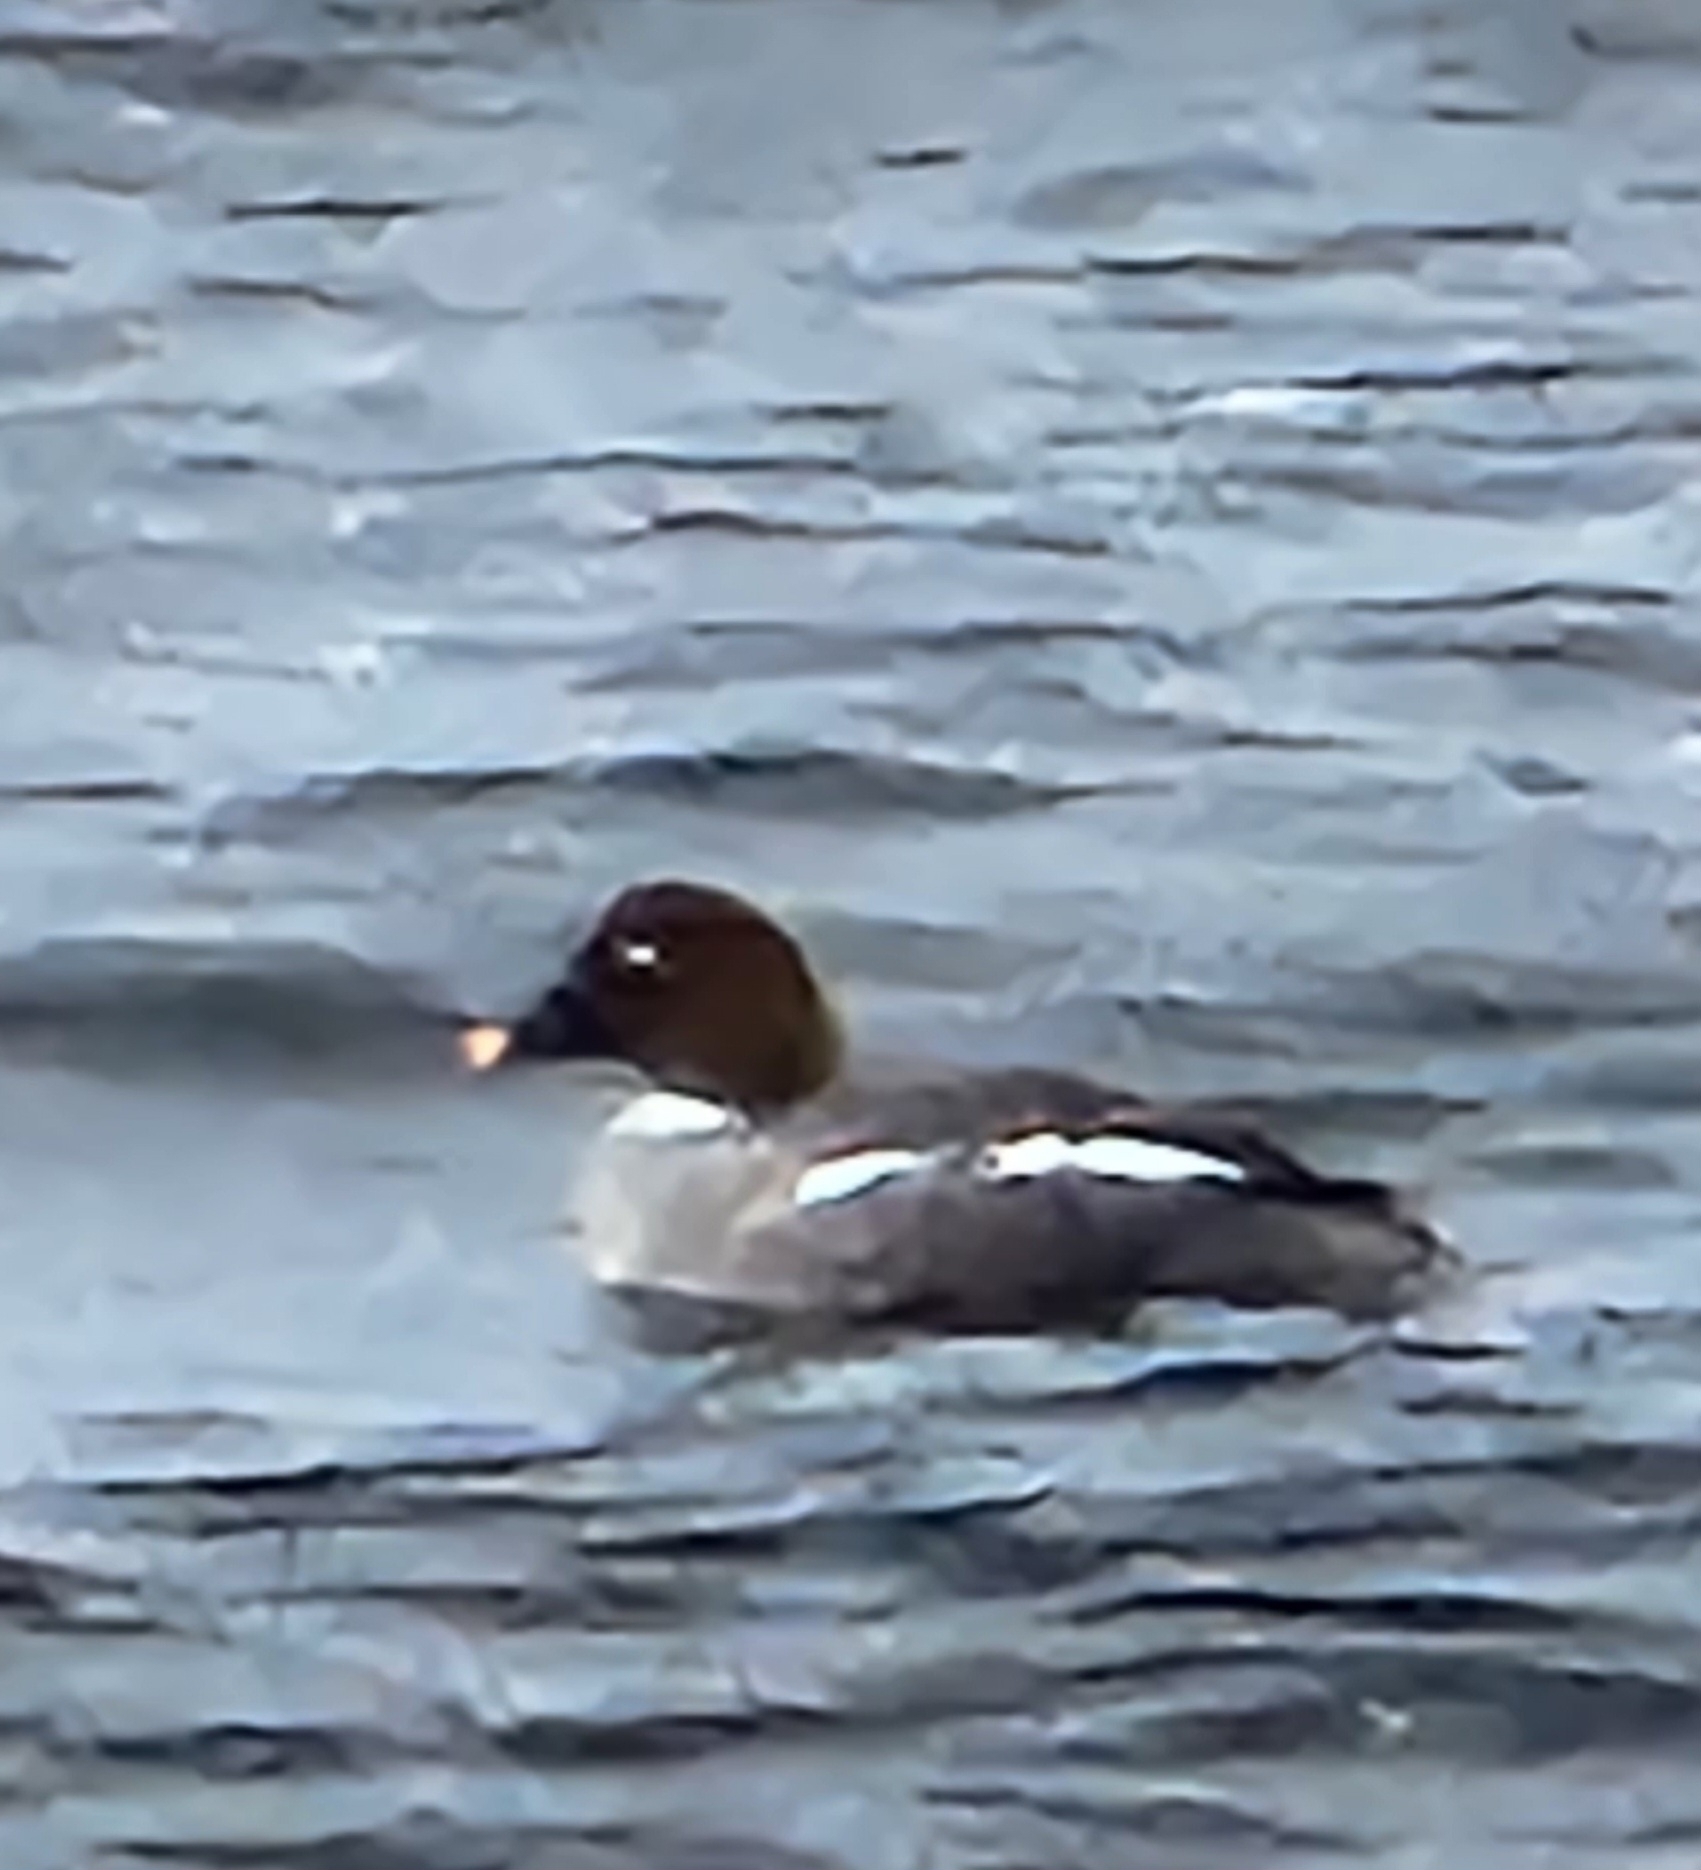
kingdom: Animalia
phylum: Chordata
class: Aves
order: Anseriformes
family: Anatidae
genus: Bucephala
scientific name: Bucephala clangula
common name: Common goldeneye
